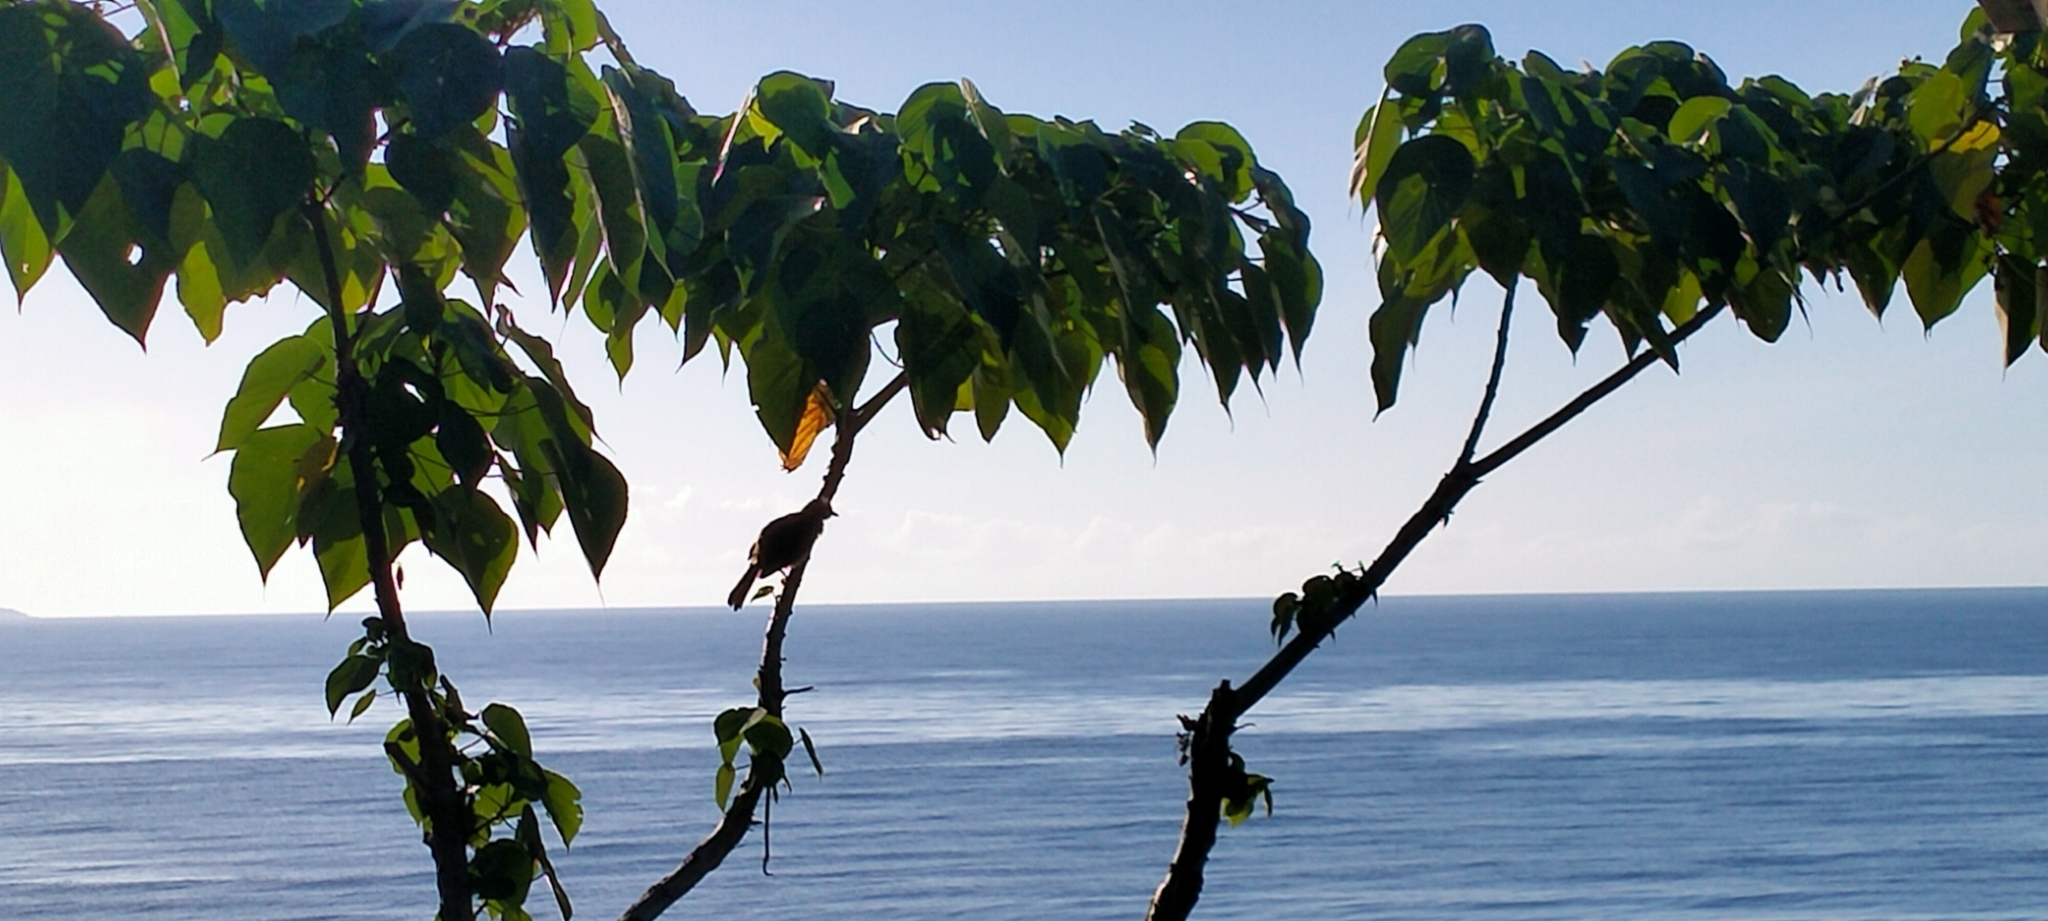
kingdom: Animalia
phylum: Chordata
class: Aves
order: Passeriformes
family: Pycnonotidae
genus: Pycnonotus
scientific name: Pycnonotus goiavier
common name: Yellow-vented bulbul
